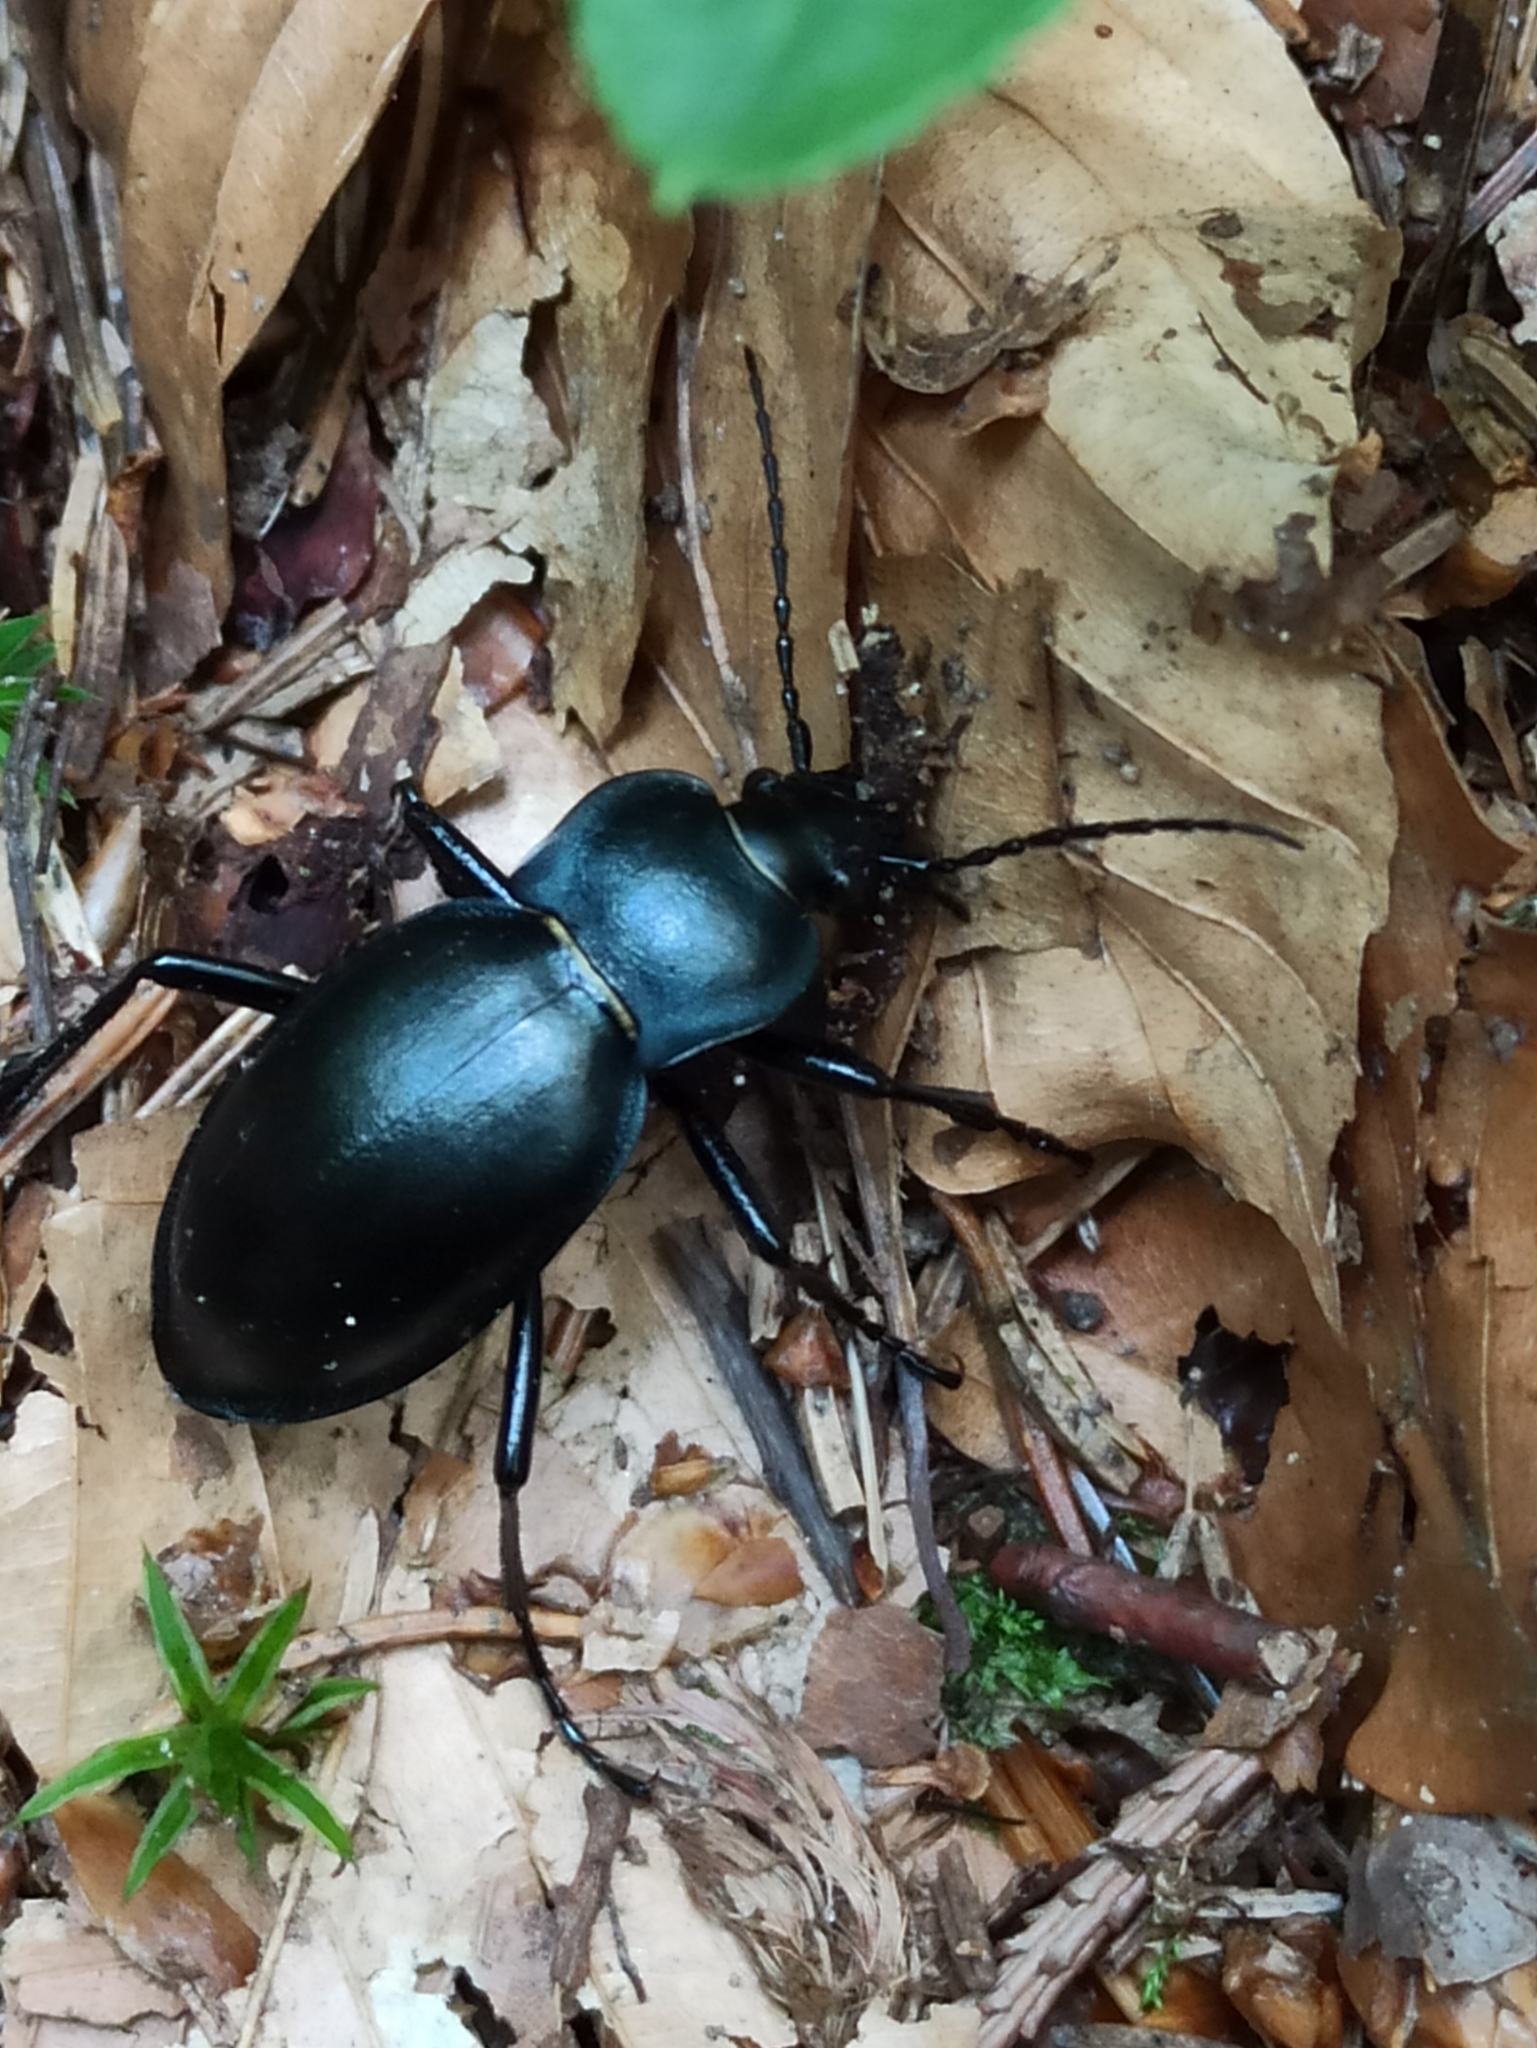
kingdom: Animalia
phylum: Arthropoda
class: Insecta
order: Coleoptera
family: Carabidae
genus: Carabus
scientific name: Carabus glabratus
